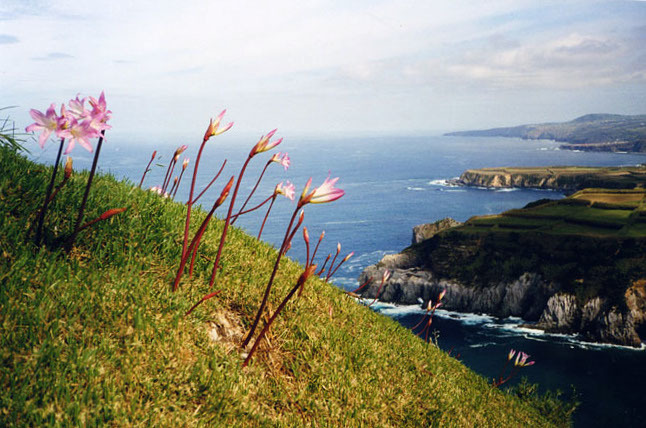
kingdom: Plantae
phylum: Tracheophyta
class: Liliopsida
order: Asparagales
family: Amaryllidaceae
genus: Amaryllis
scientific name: Amaryllis belladonna
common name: Jersey lily
